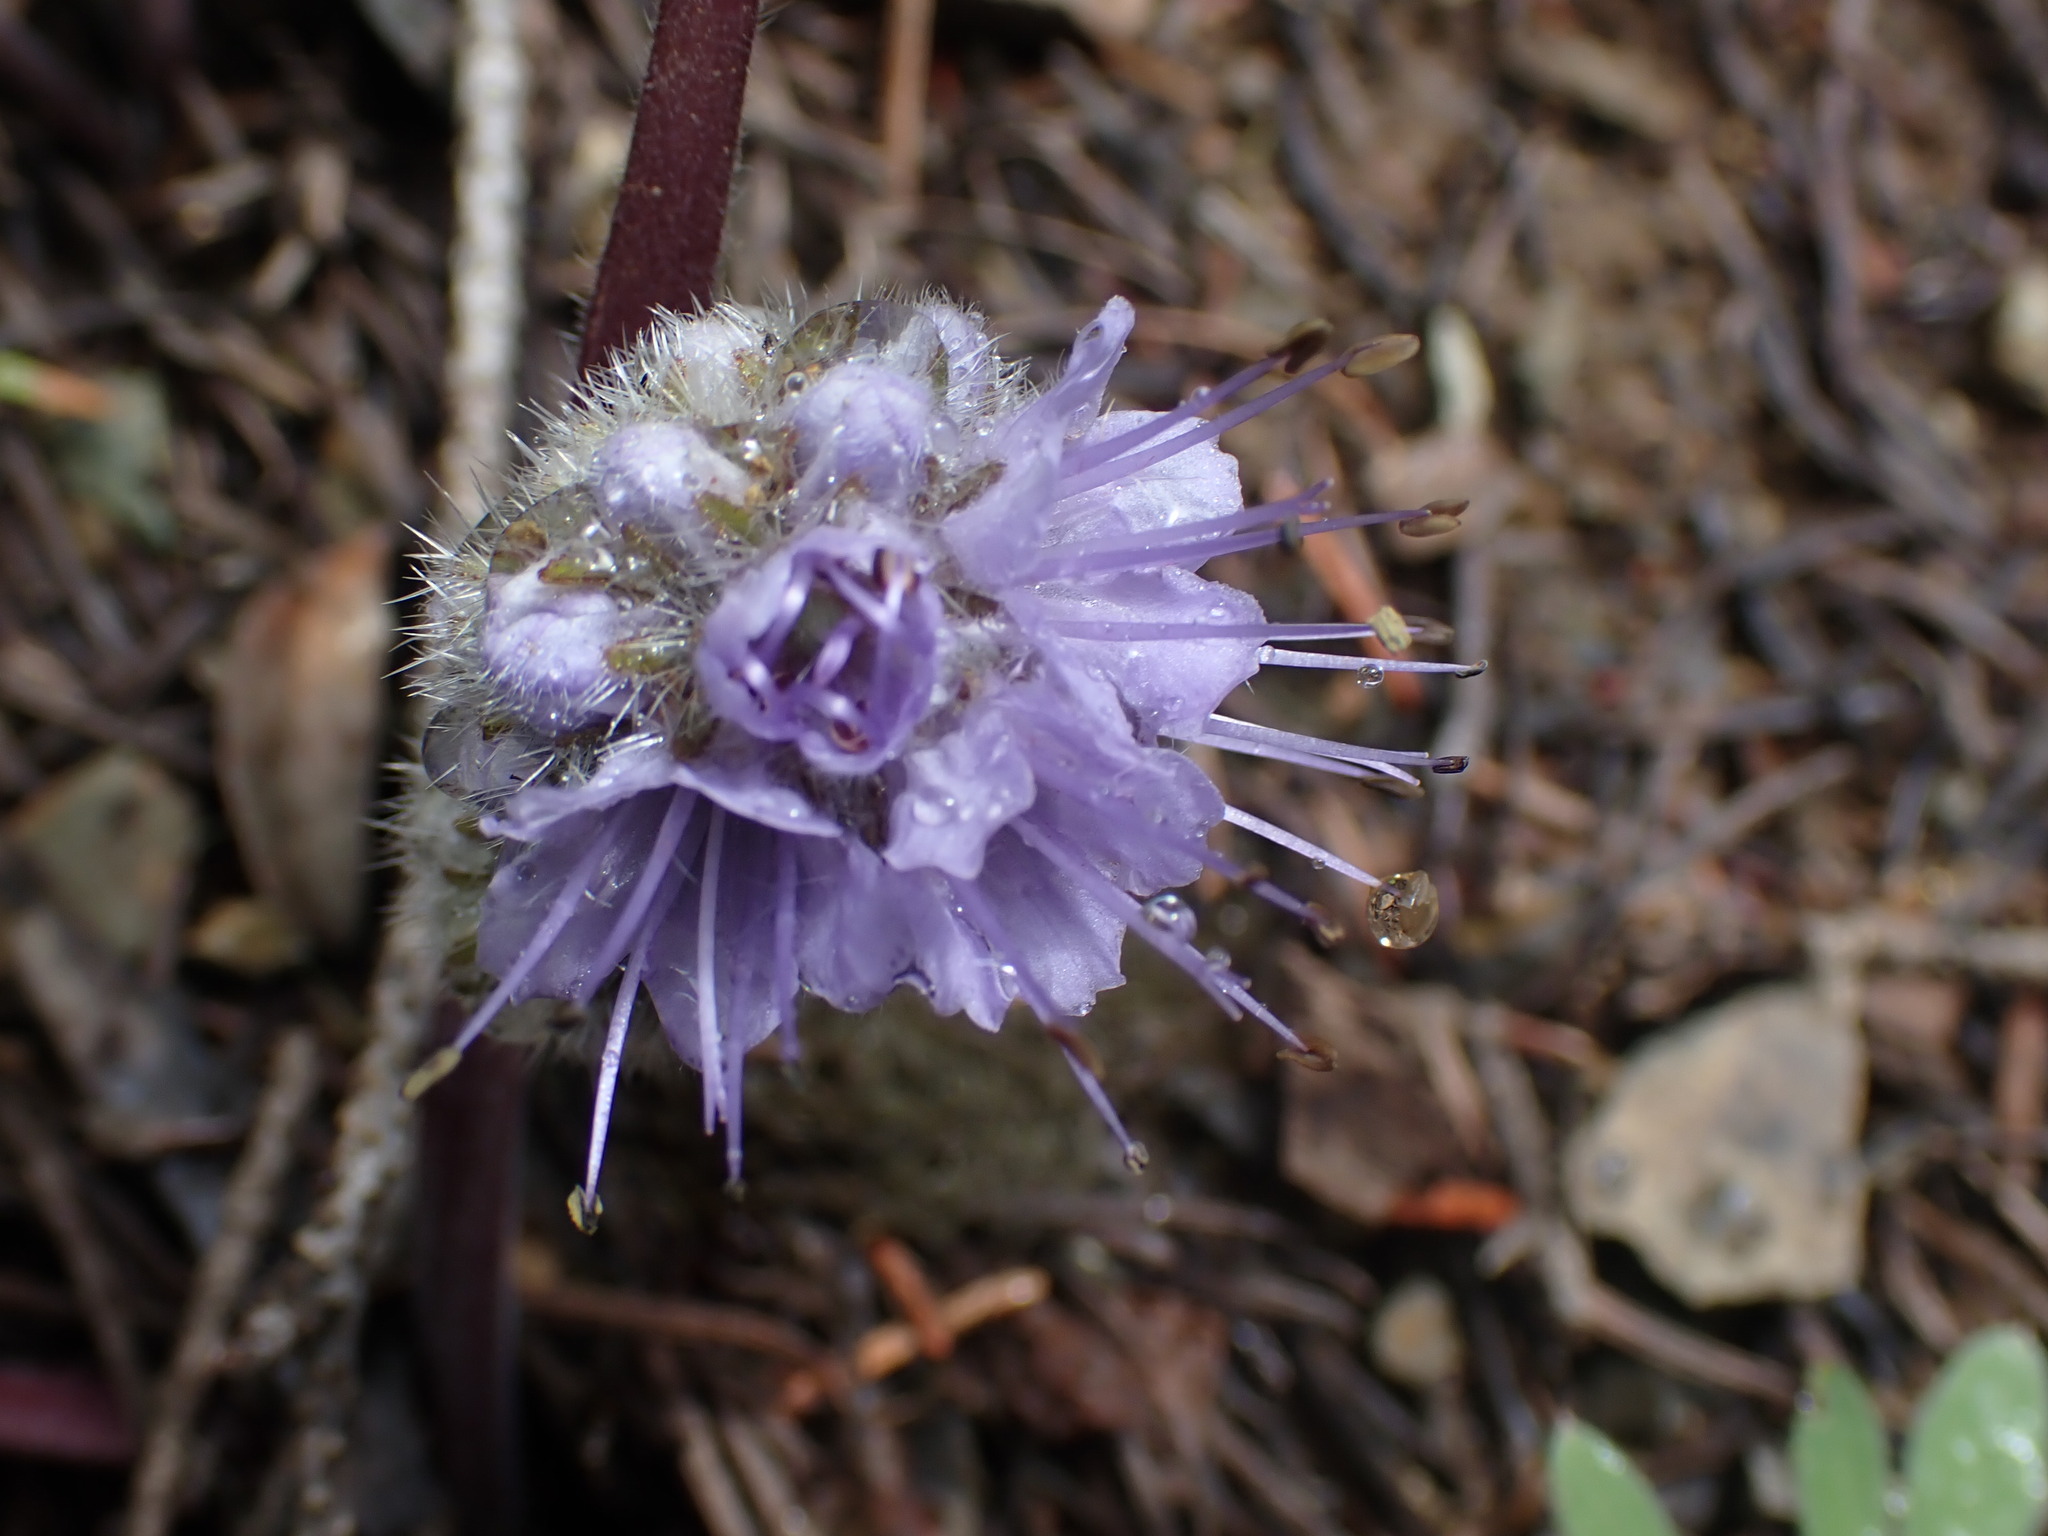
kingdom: Plantae
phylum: Tracheophyta
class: Magnoliopsida
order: Boraginales
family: Hydrophyllaceae
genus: Hydrophyllum
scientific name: Hydrophyllum capitatum
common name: Woollen-breeches
